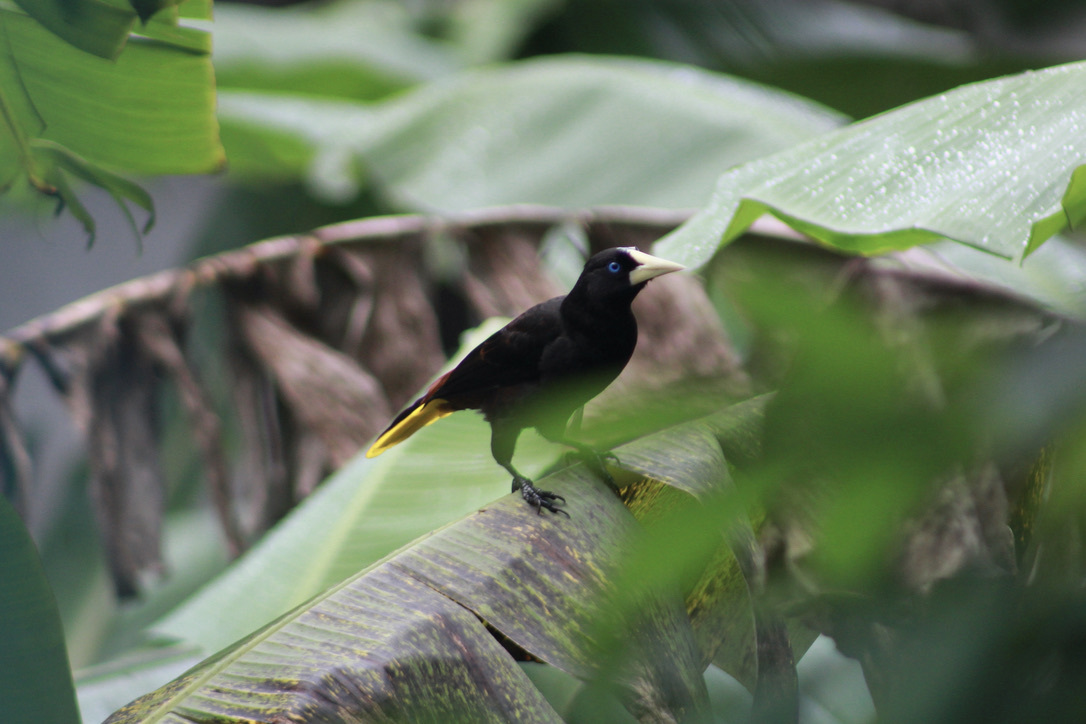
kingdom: Animalia
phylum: Chordata
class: Aves
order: Passeriformes
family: Icteridae
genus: Psarocolius
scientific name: Psarocolius decumanus
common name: Crested oropendola
